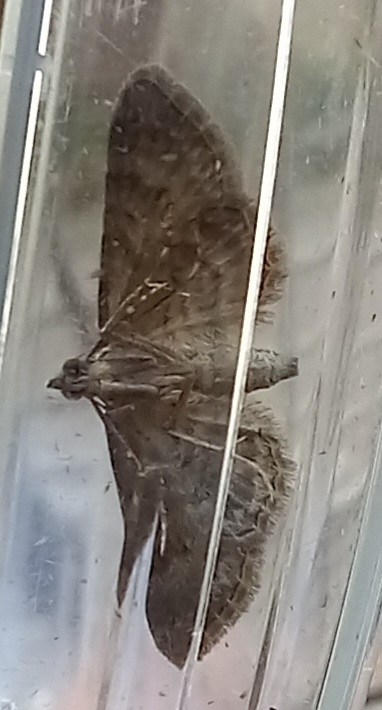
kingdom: Animalia
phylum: Arthropoda
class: Insecta
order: Lepidoptera
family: Geometridae
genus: Gymnoscelis
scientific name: Gymnoscelis rufifasciata
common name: Double-striped pug
